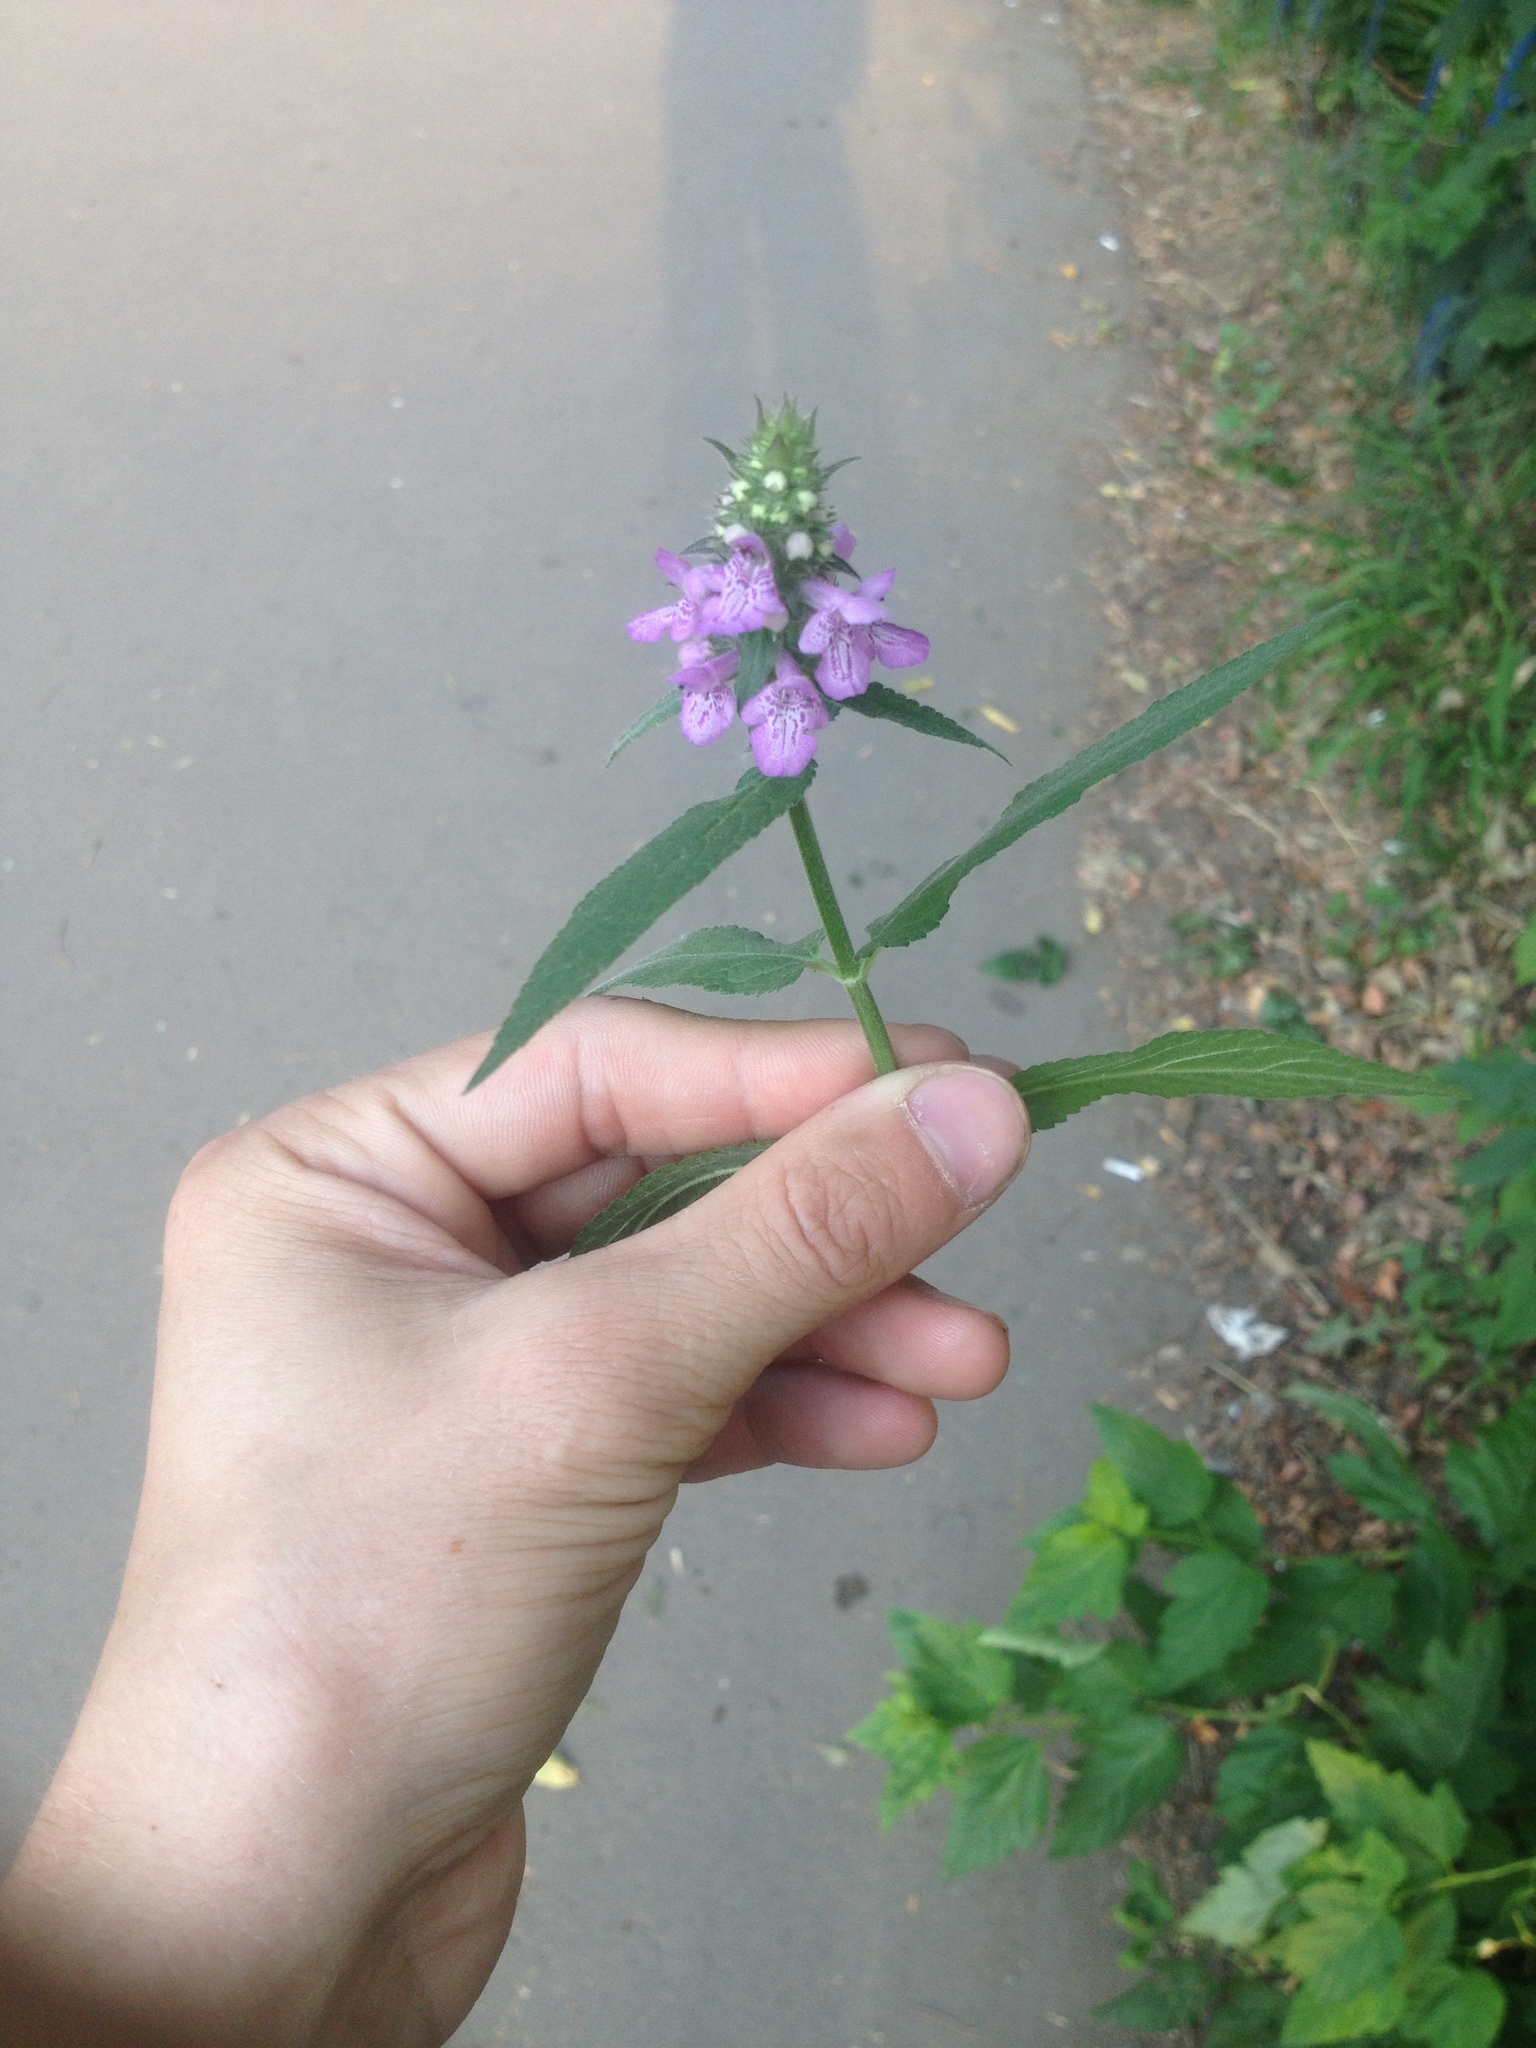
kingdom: Plantae
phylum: Tracheophyta
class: Magnoliopsida
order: Lamiales
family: Lamiaceae
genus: Stachys
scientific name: Stachys palustris
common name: Marsh woundwort
